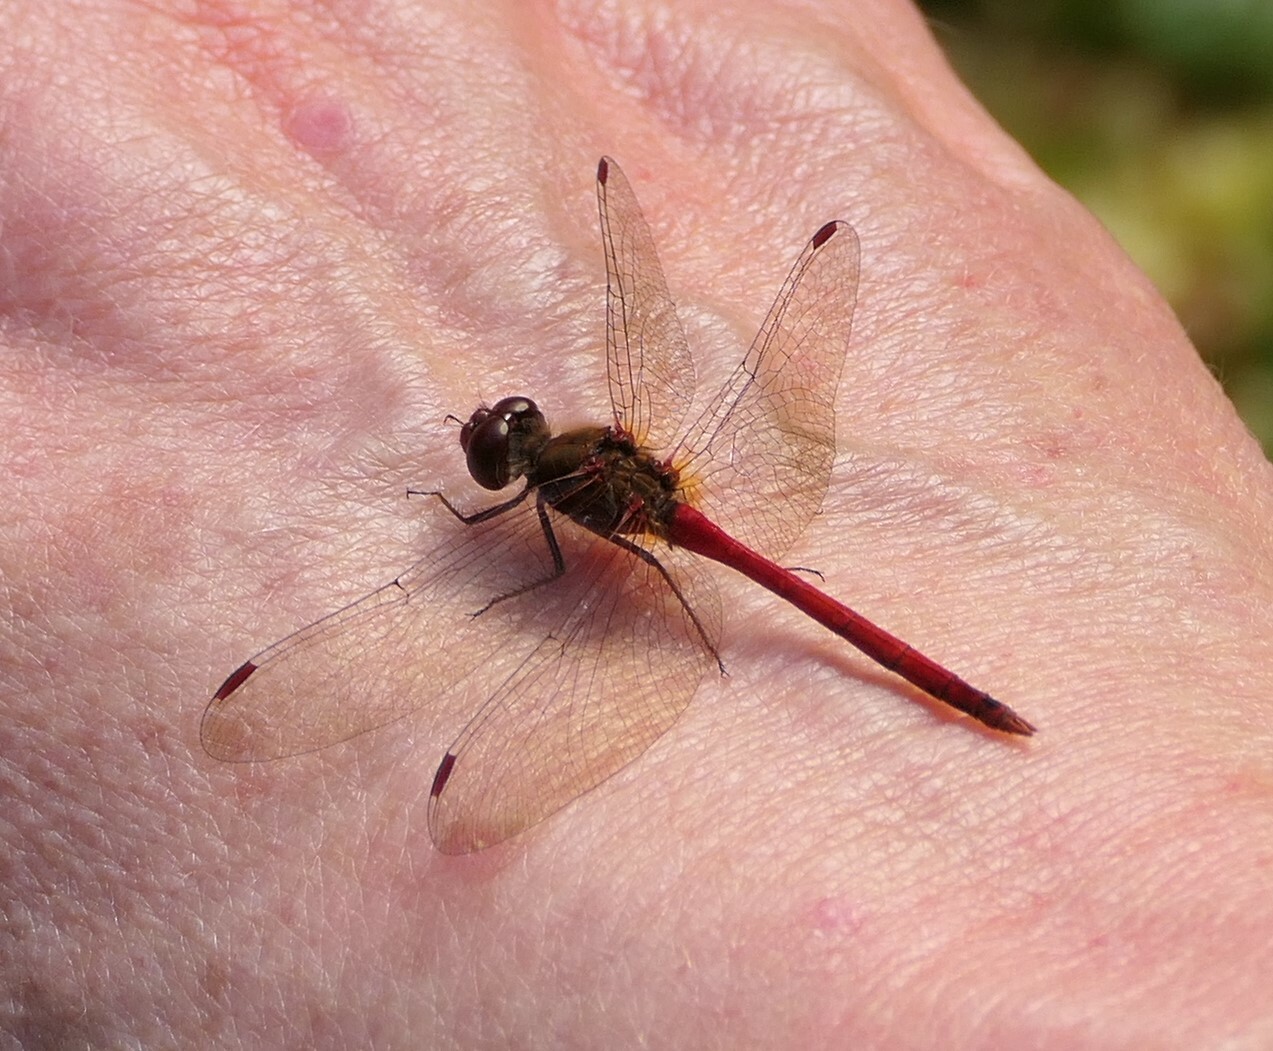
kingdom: Animalia
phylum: Arthropoda
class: Insecta
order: Odonata
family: Libellulidae
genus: Sympetrum
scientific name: Sympetrum vicinum
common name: Autumn meadowhawk
